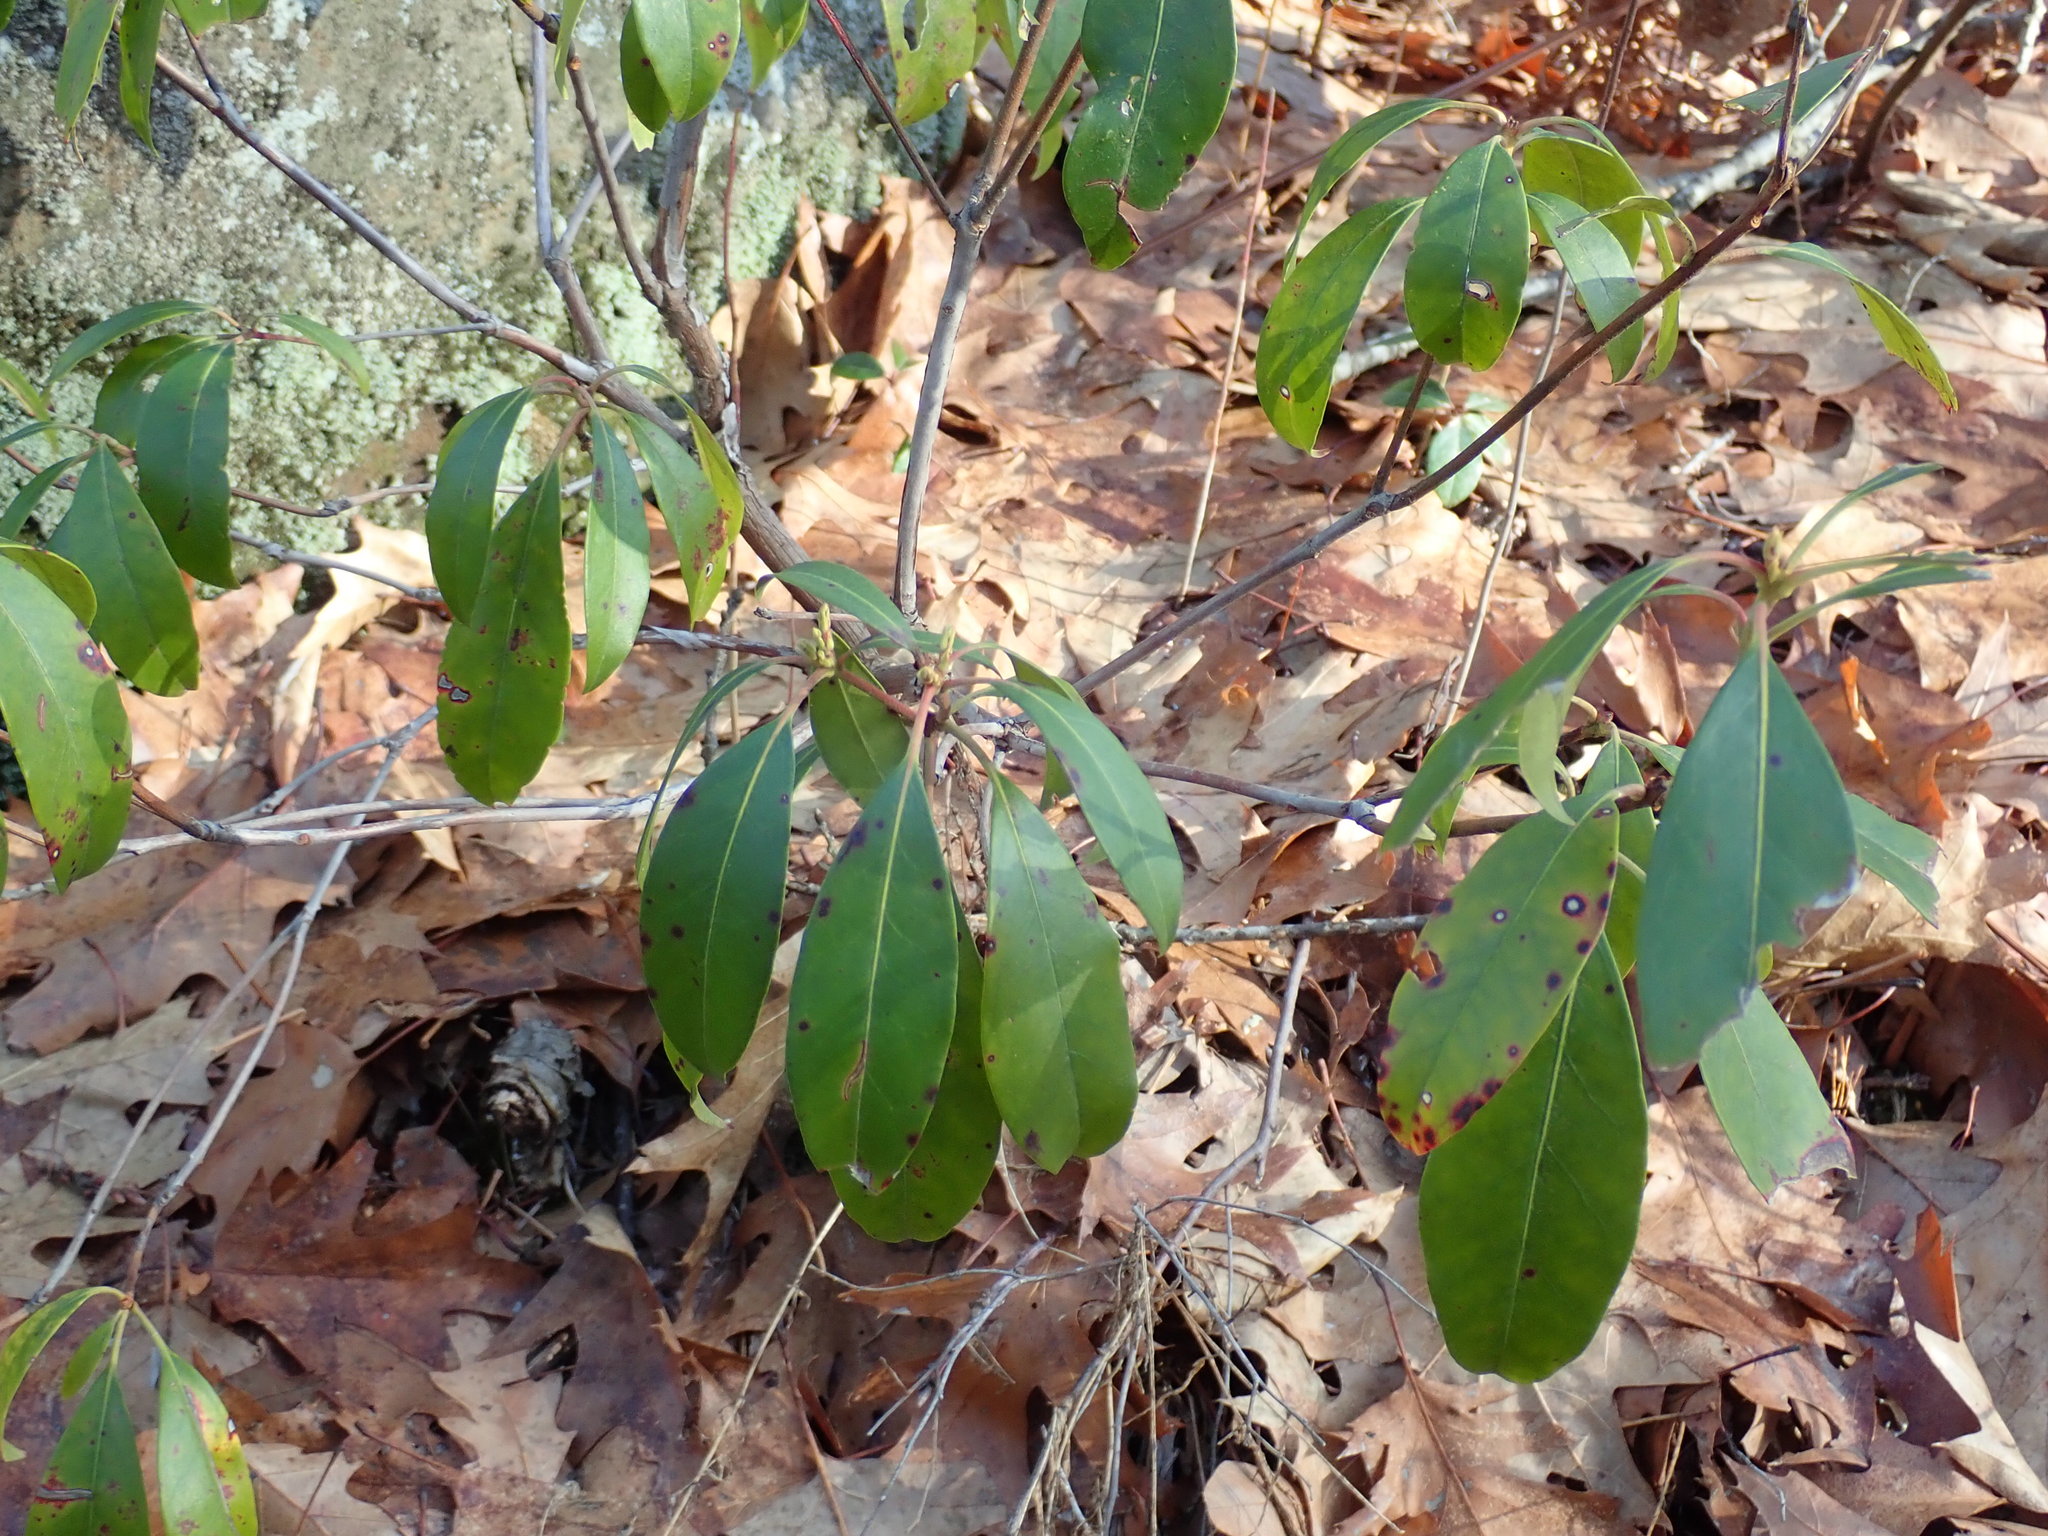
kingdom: Plantae
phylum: Tracheophyta
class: Magnoliopsida
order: Ericales
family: Ericaceae
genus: Kalmia
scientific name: Kalmia latifolia
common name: Mountain-laurel
